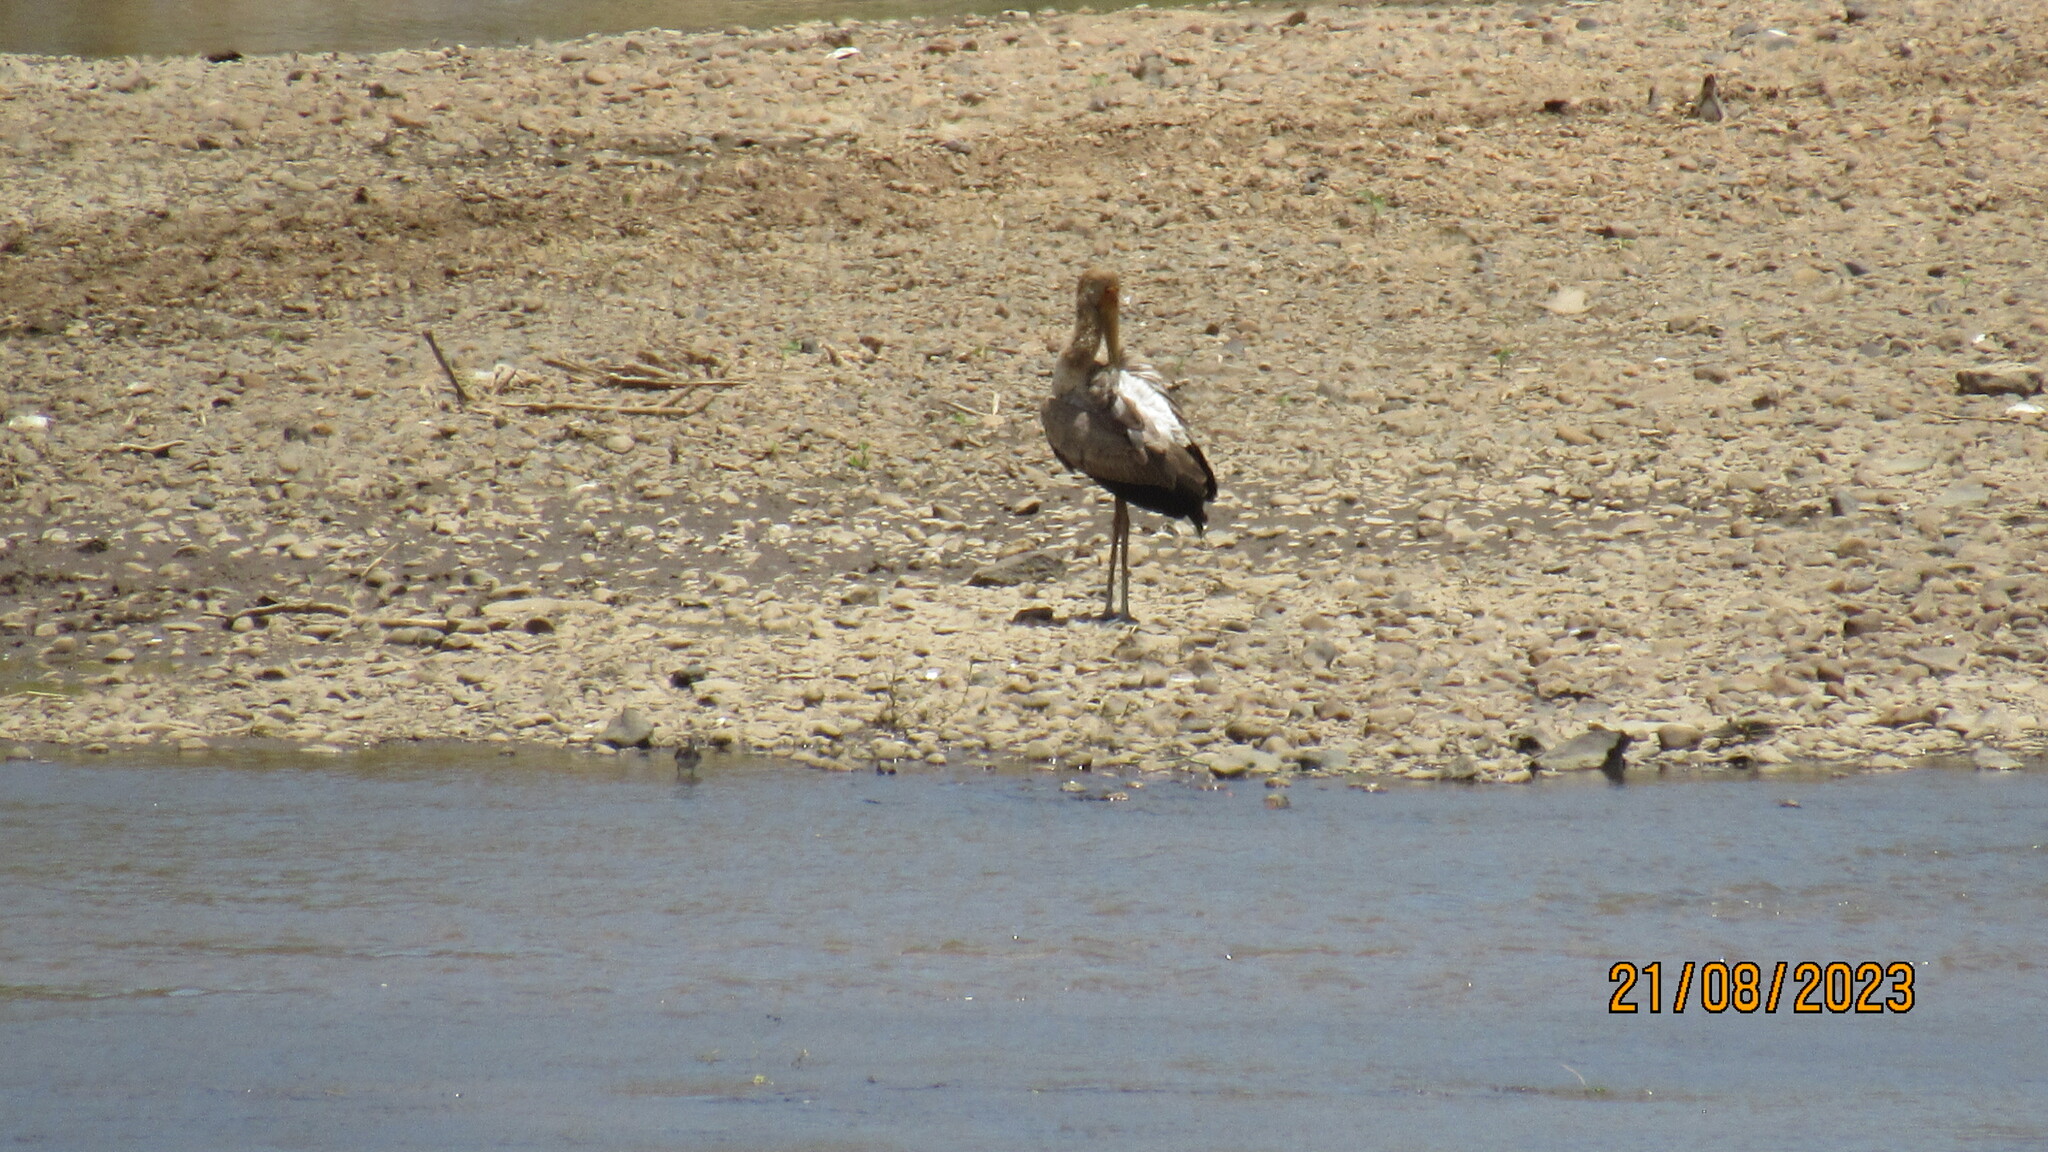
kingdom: Animalia
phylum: Chordata
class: Aves
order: Ciconiiformes
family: Ciconiidae
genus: Mycteria
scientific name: Mycteria ibis
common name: Yellow-billed stork
